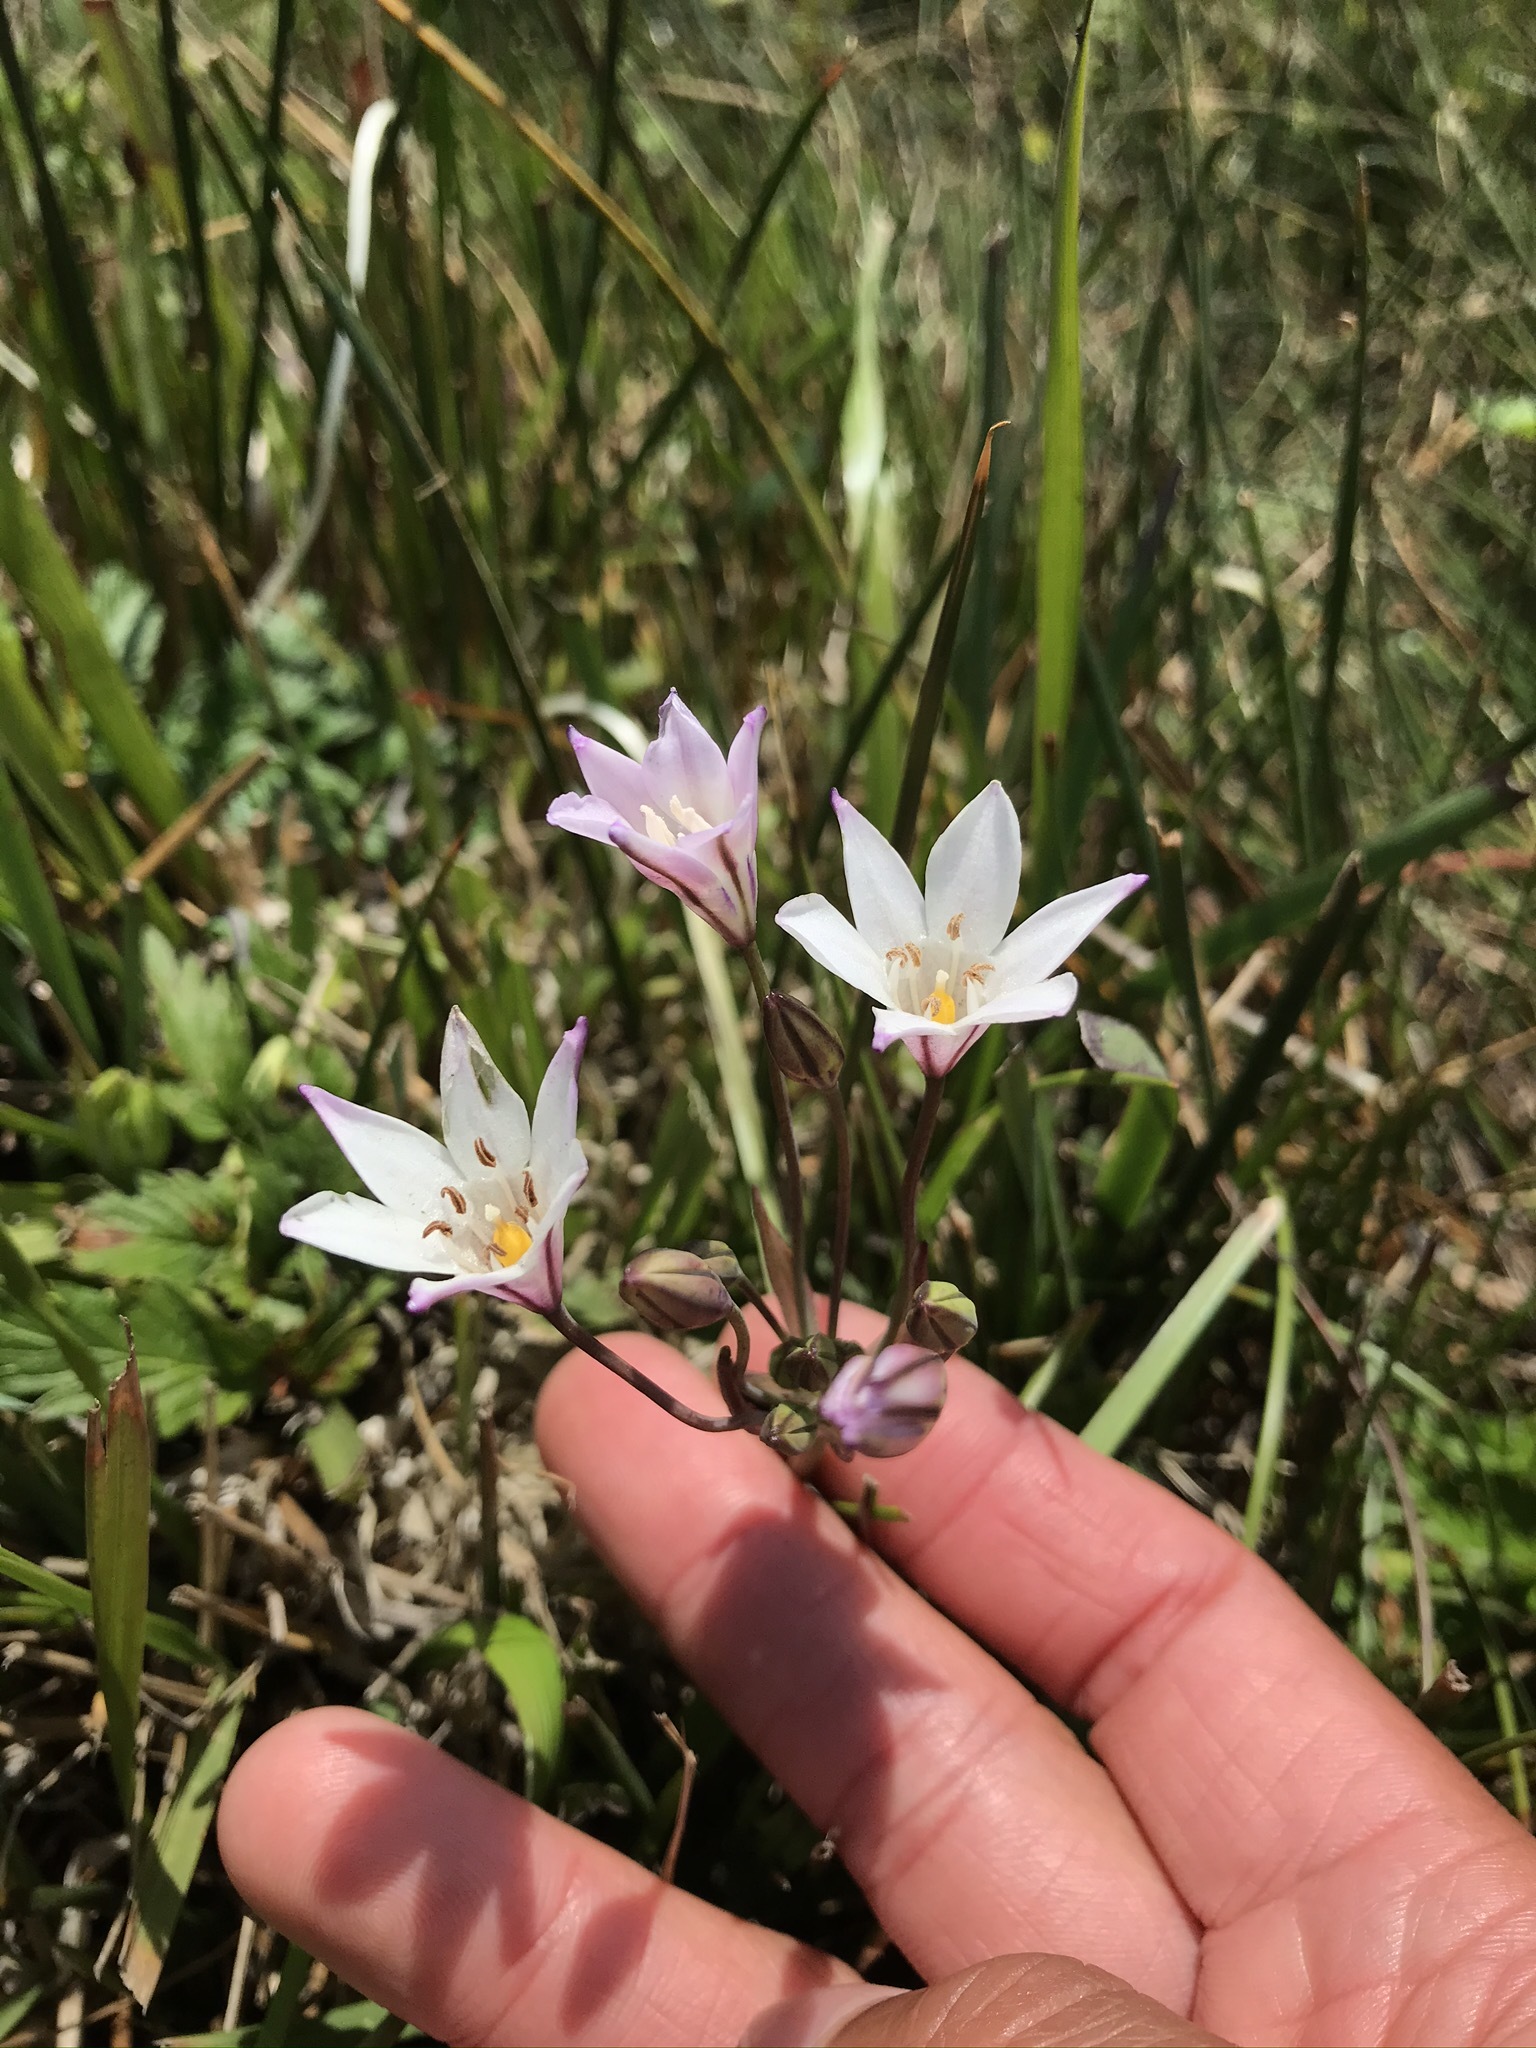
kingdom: Plantae
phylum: Tracheophyta
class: Liliopsida
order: Asparagales
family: Asparagaceae
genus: Triteleia
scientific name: Triteleia peduncularis
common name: Long-ray brodiaea
